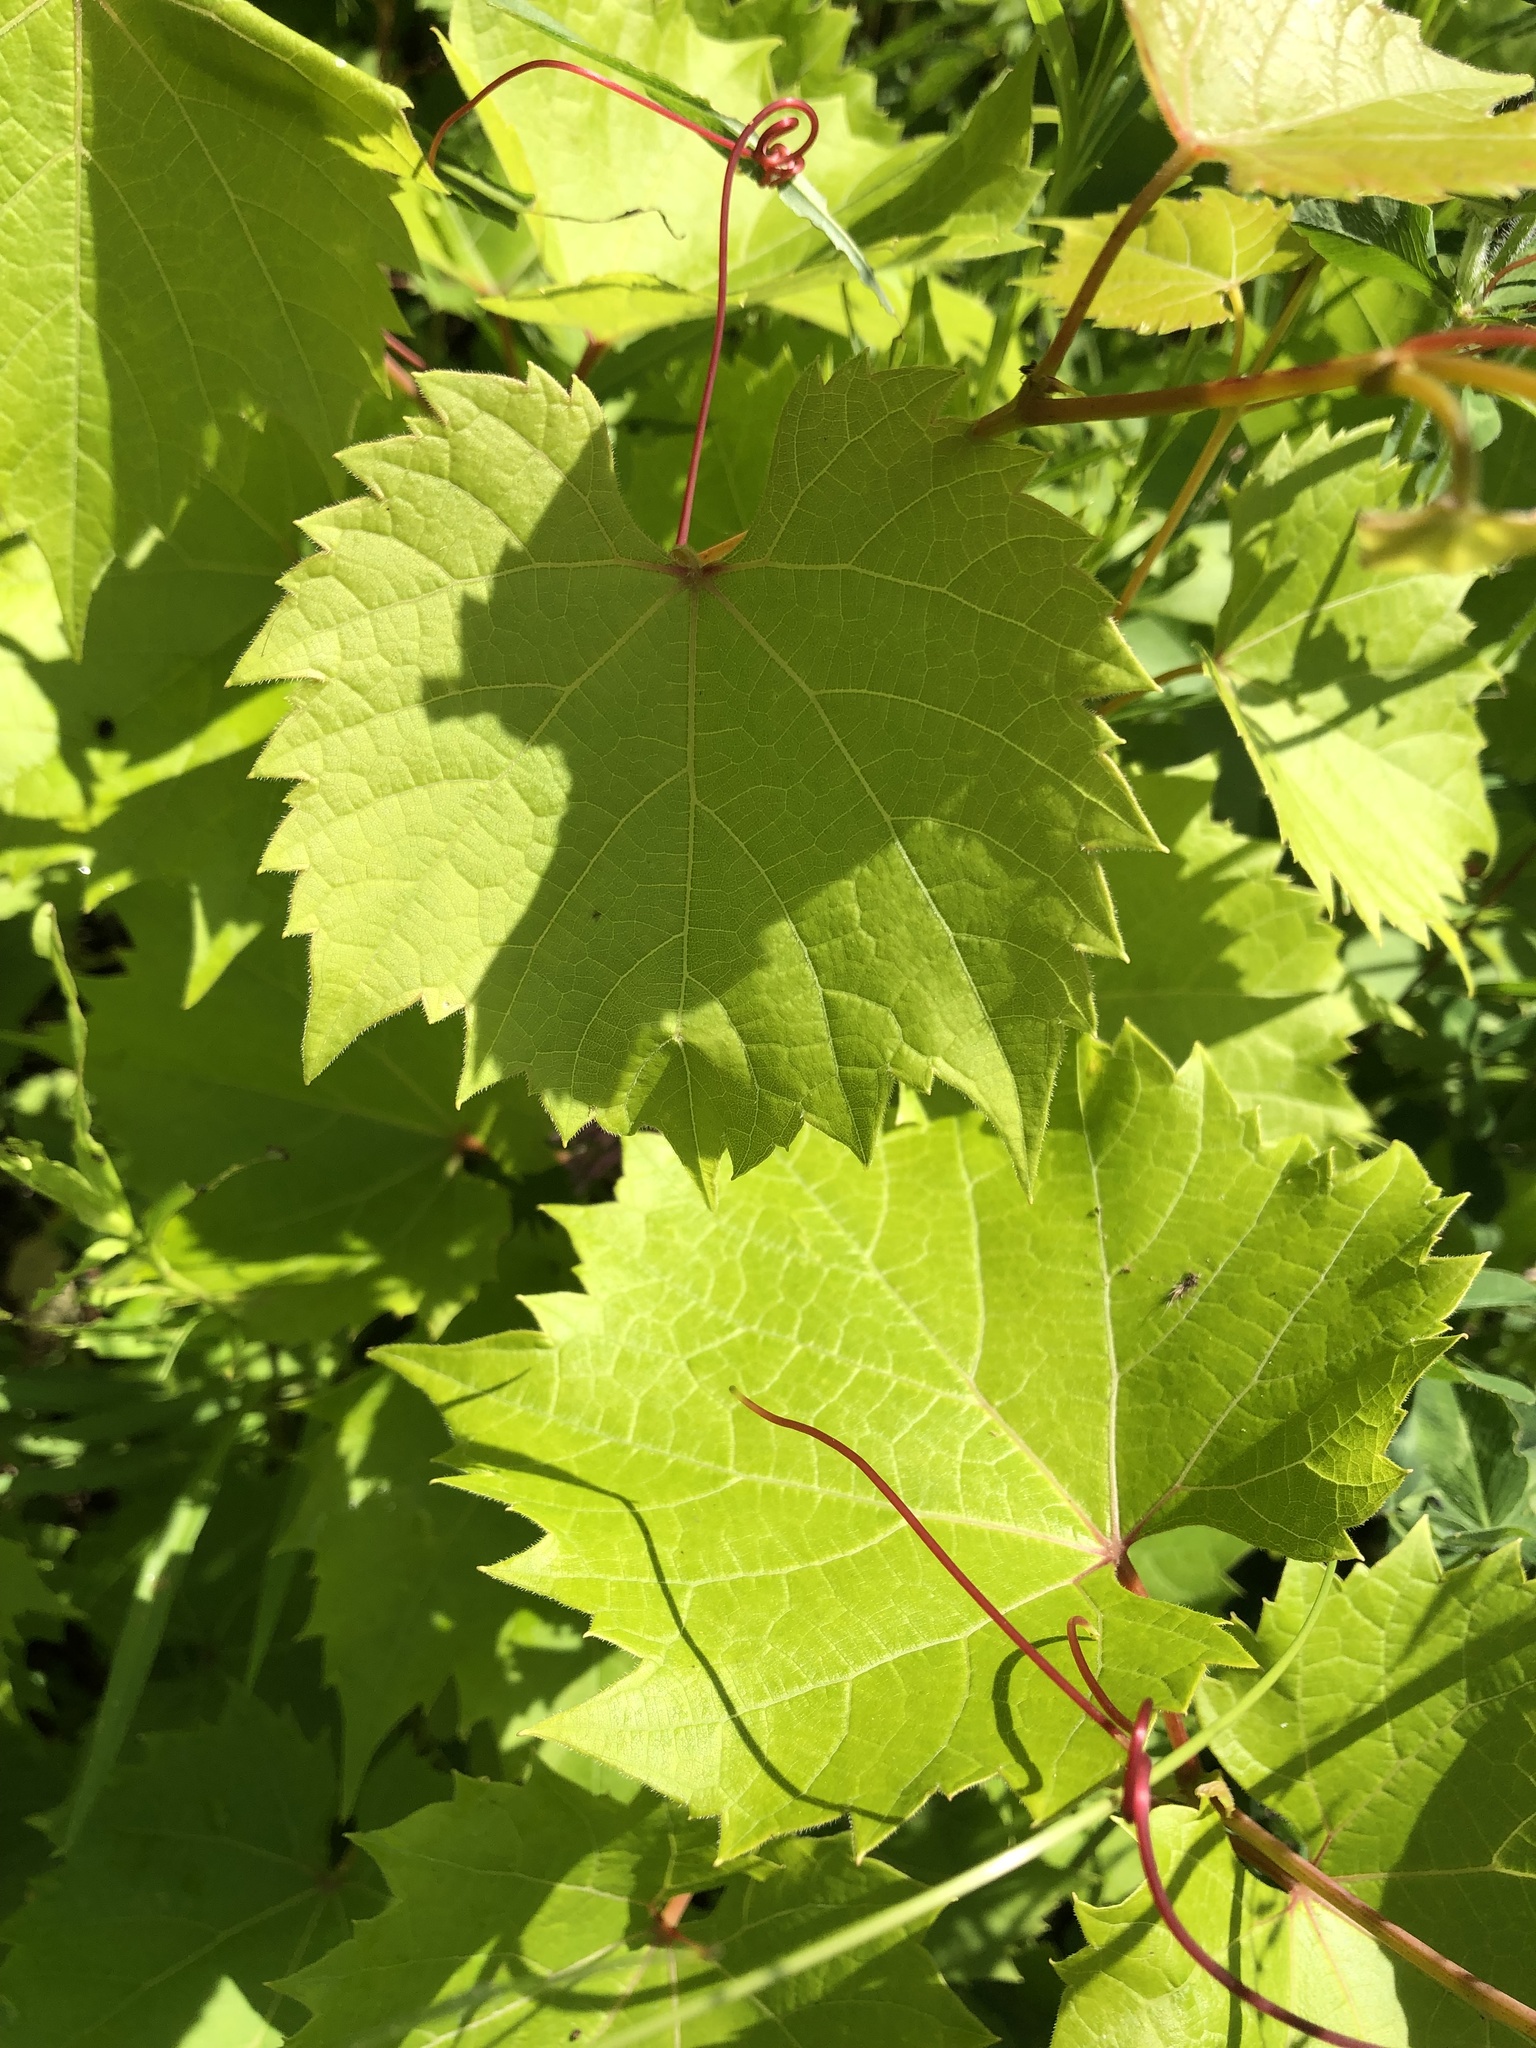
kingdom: Plantae
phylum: Tracheophyta
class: Magnoliopsida
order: Vitales
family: Vitaceae
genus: Vitis
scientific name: Vitis riparia
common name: Frost grape
